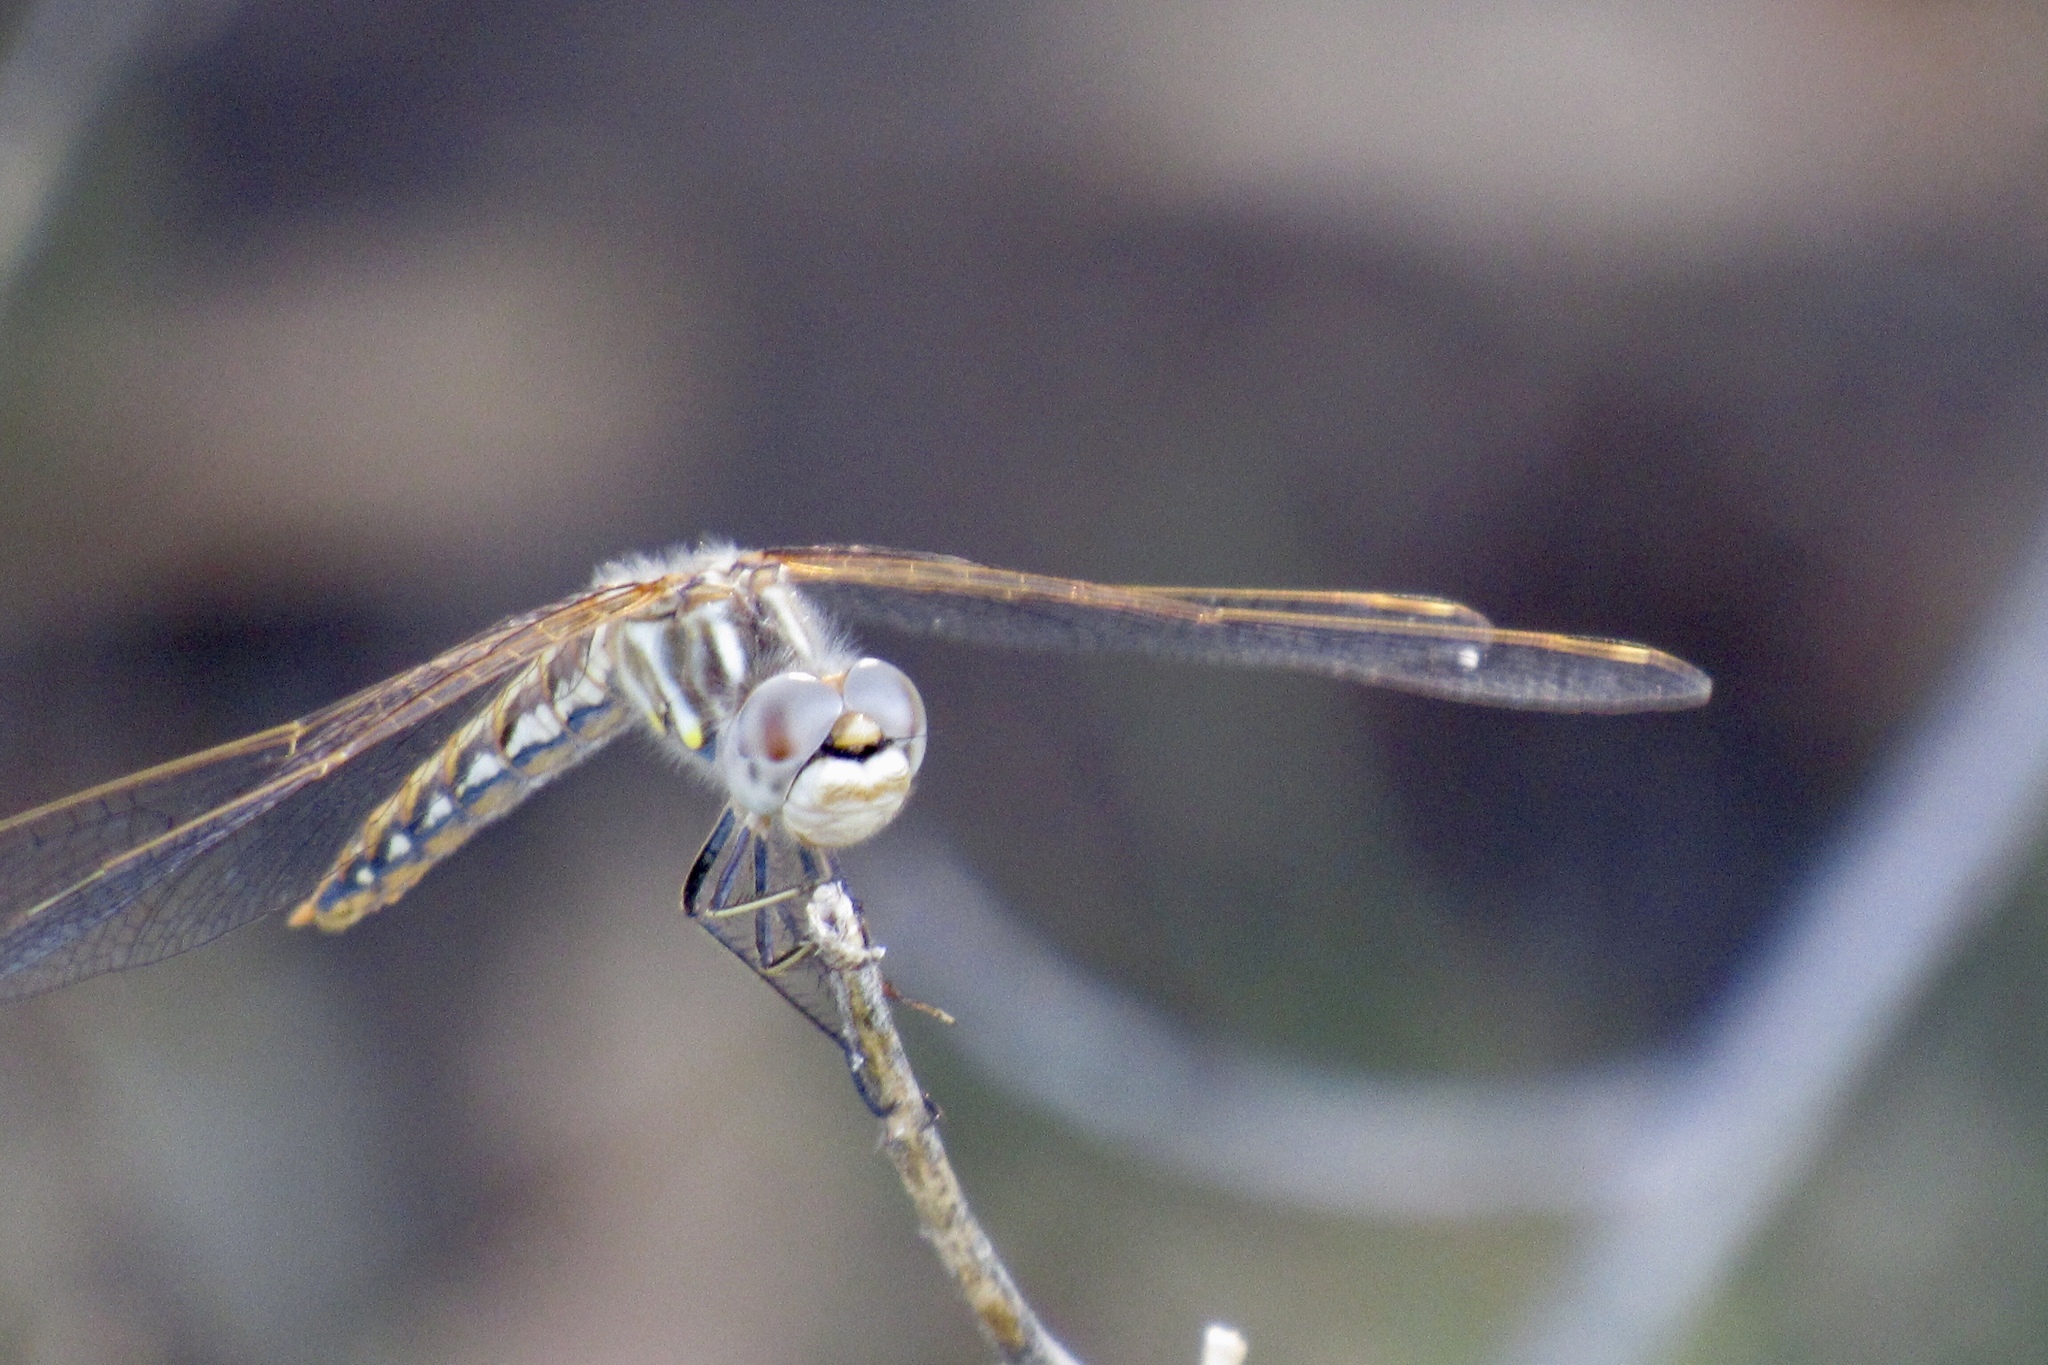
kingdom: Animalia
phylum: Arthropoda
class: Insecta
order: Odonata
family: Libellulidae
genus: Sympetrum
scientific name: Sympetrum corruptum
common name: Variegated meadowhawk
